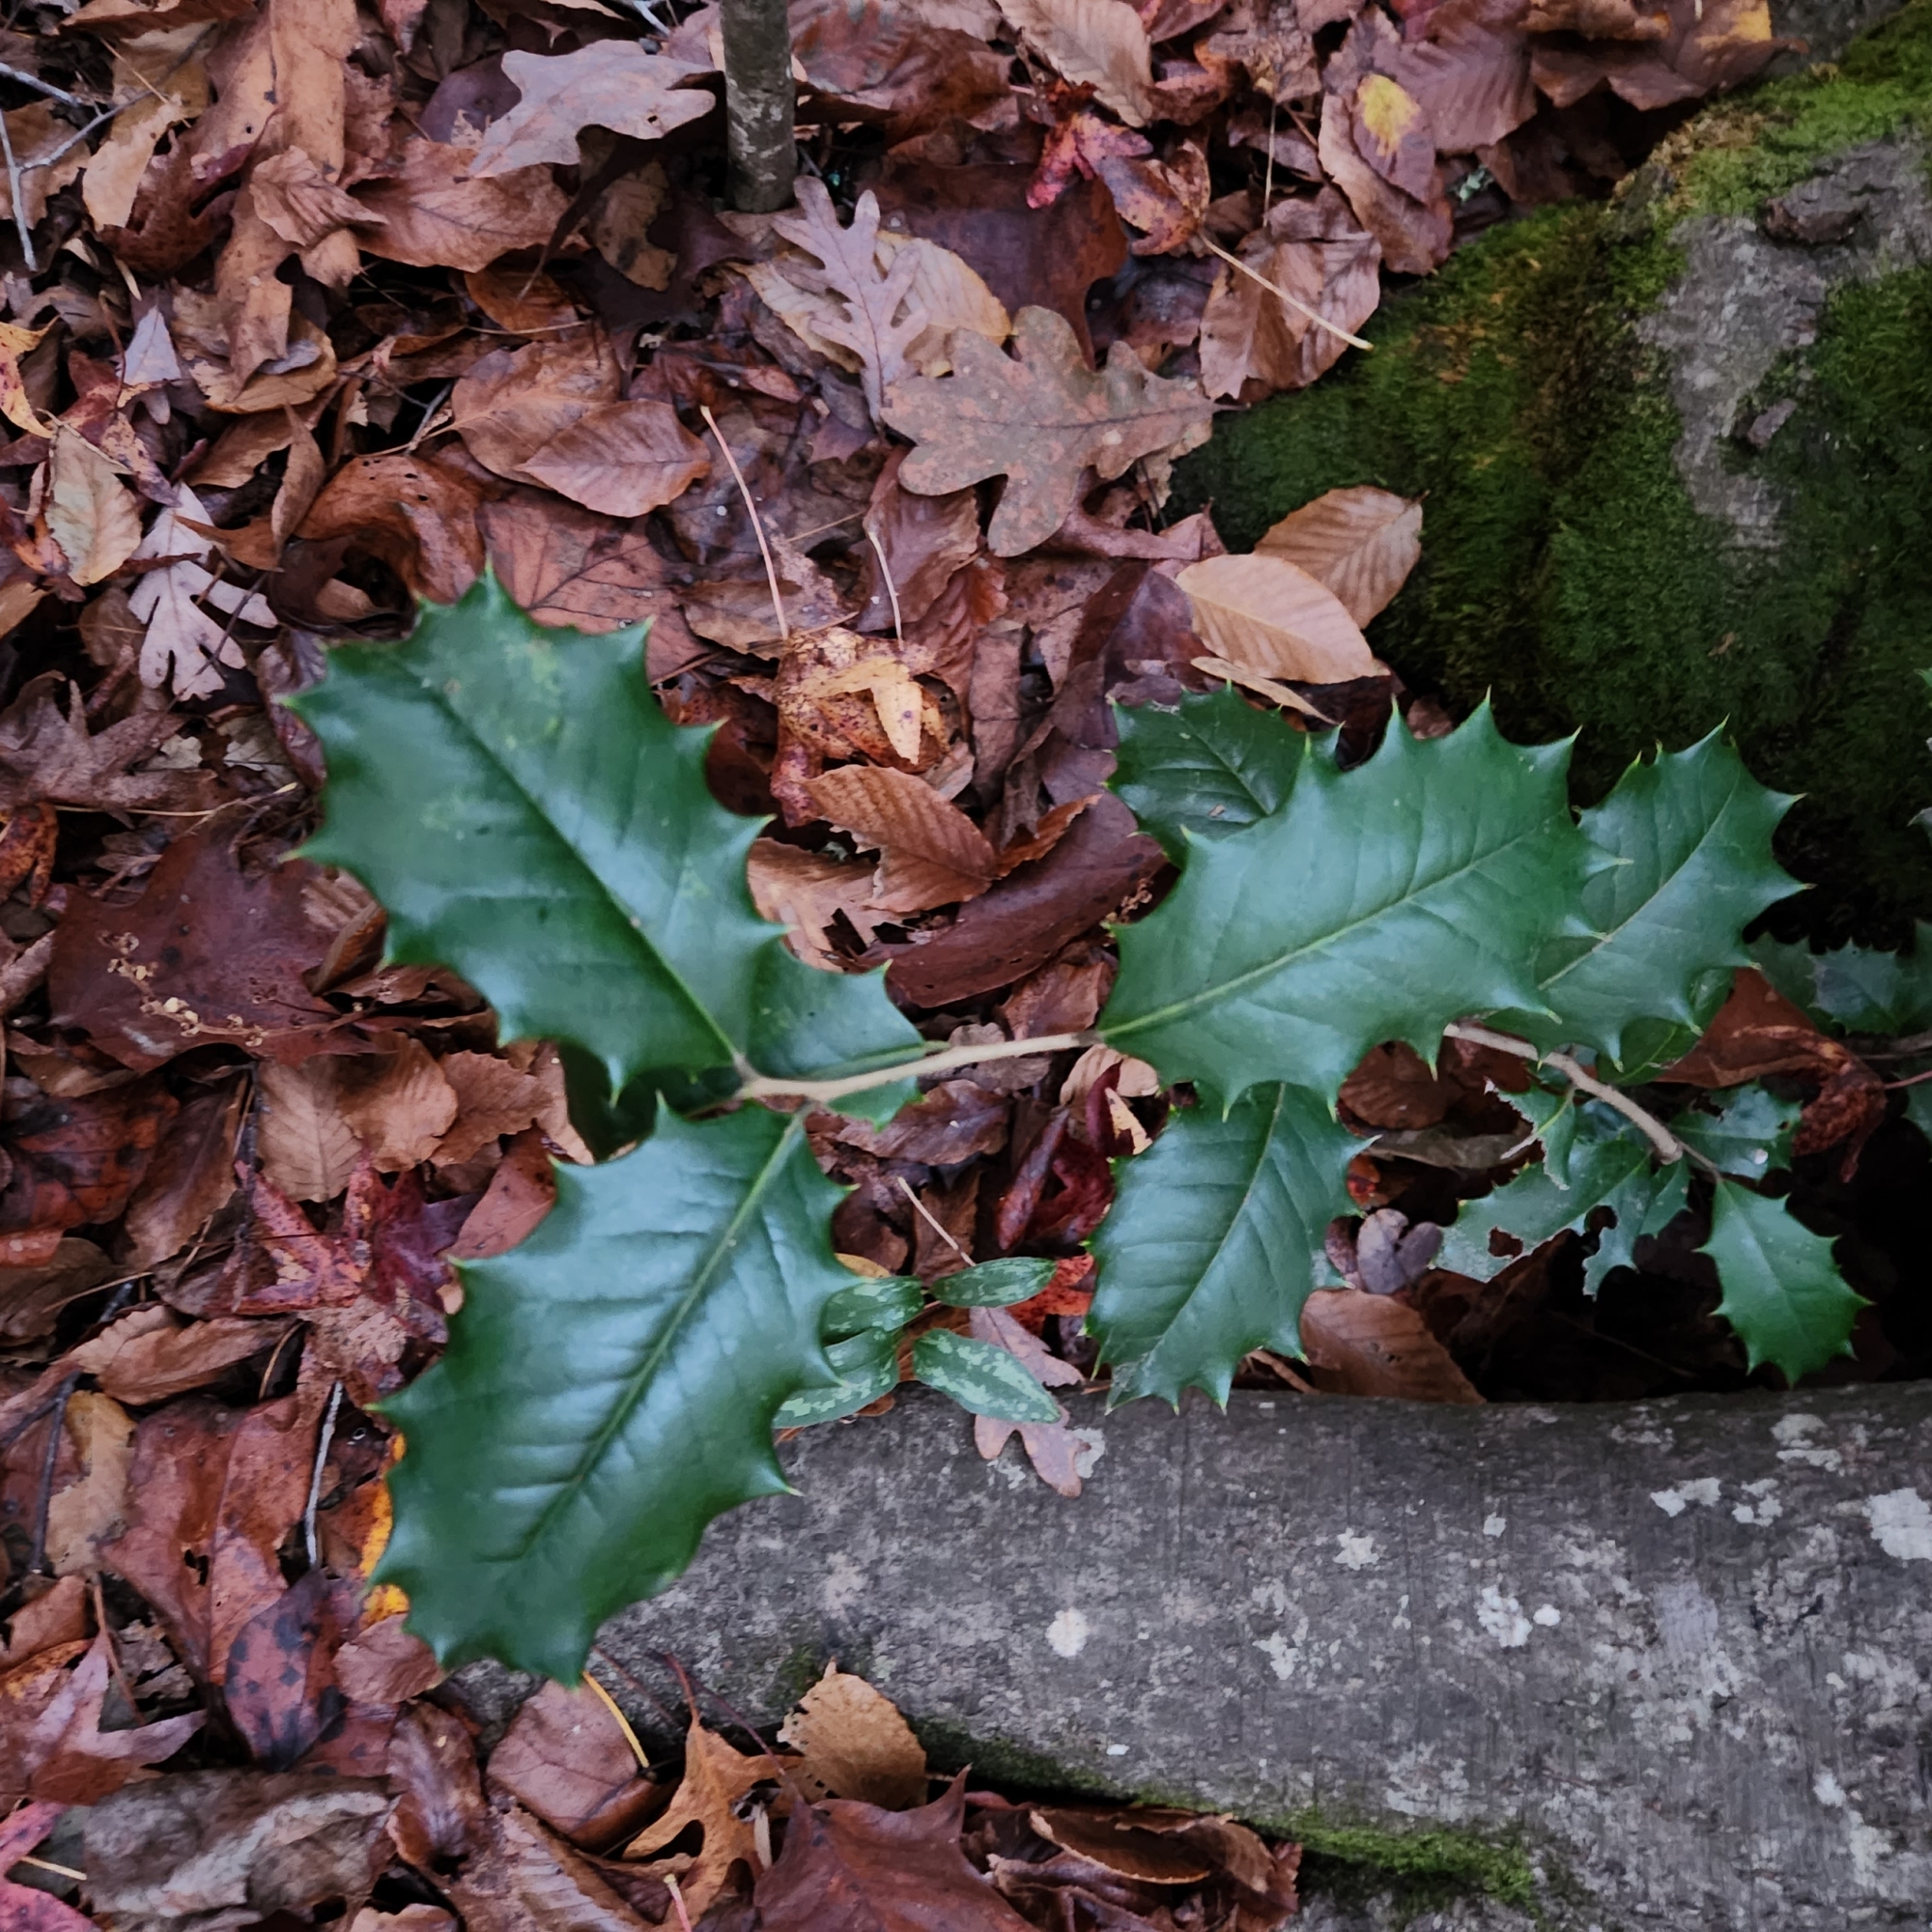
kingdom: Plantae
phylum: Tracheophyta
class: Magnoliopsida
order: Aquifoliales
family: Aquifoliaceae
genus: Ilex
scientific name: Ilex opaca
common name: American holly
